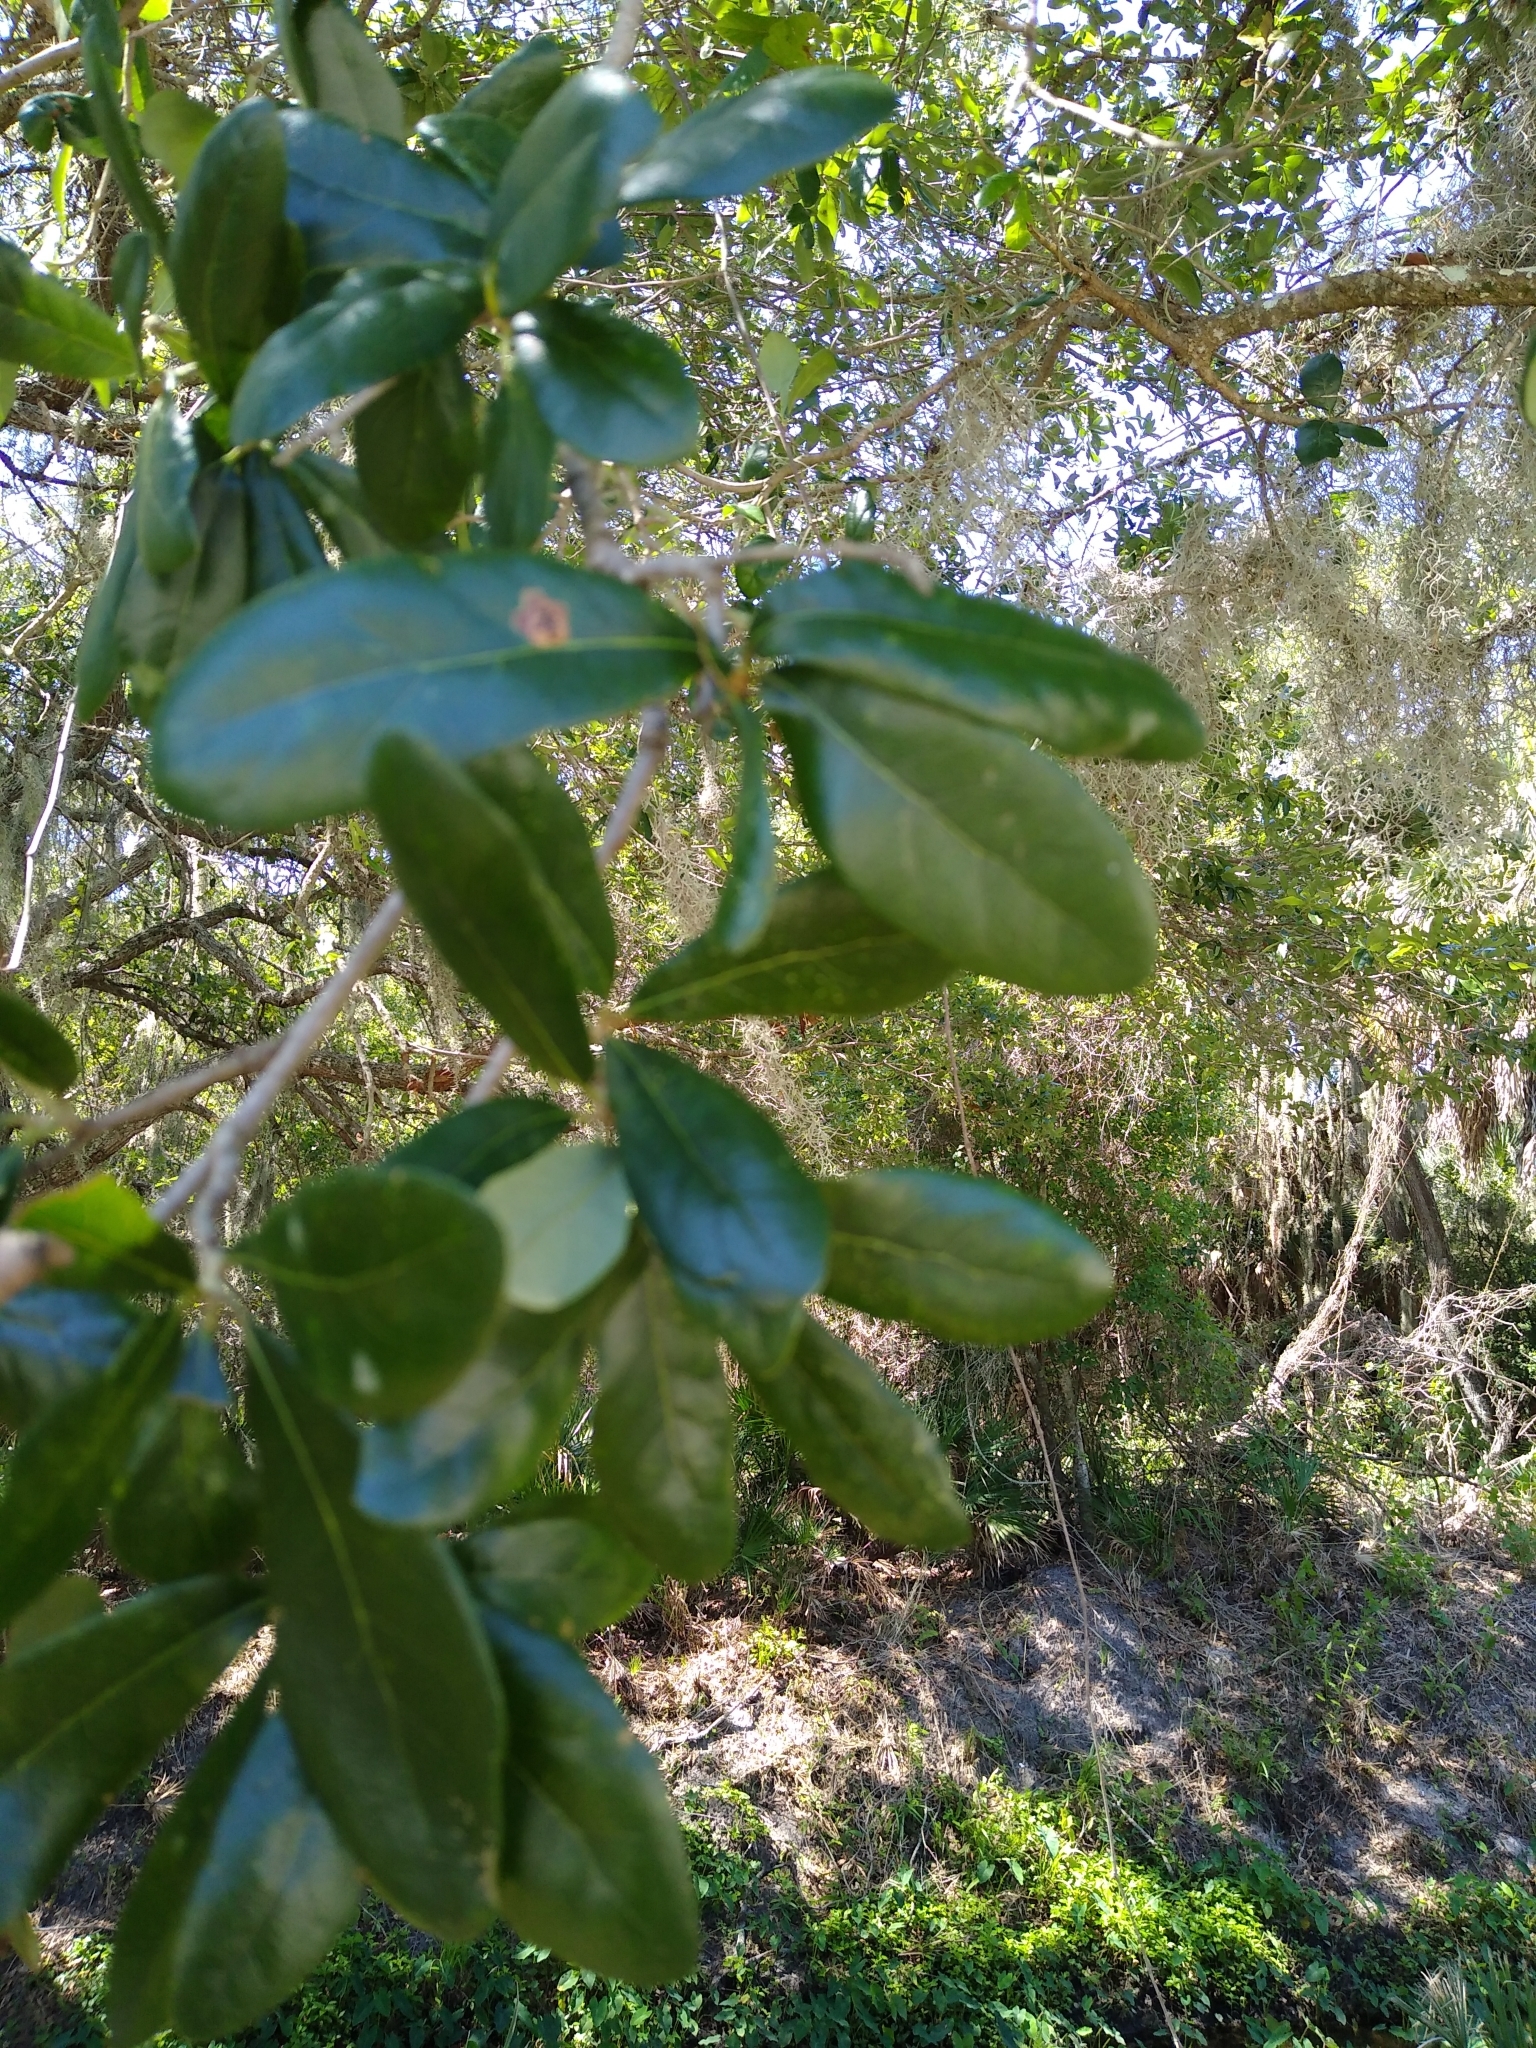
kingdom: Plantae
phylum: Tracheophyta
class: Magnoliopsida
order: Fagales
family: Fagaceae
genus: Quercus
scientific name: Quercus virginiana
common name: Southern live oak
